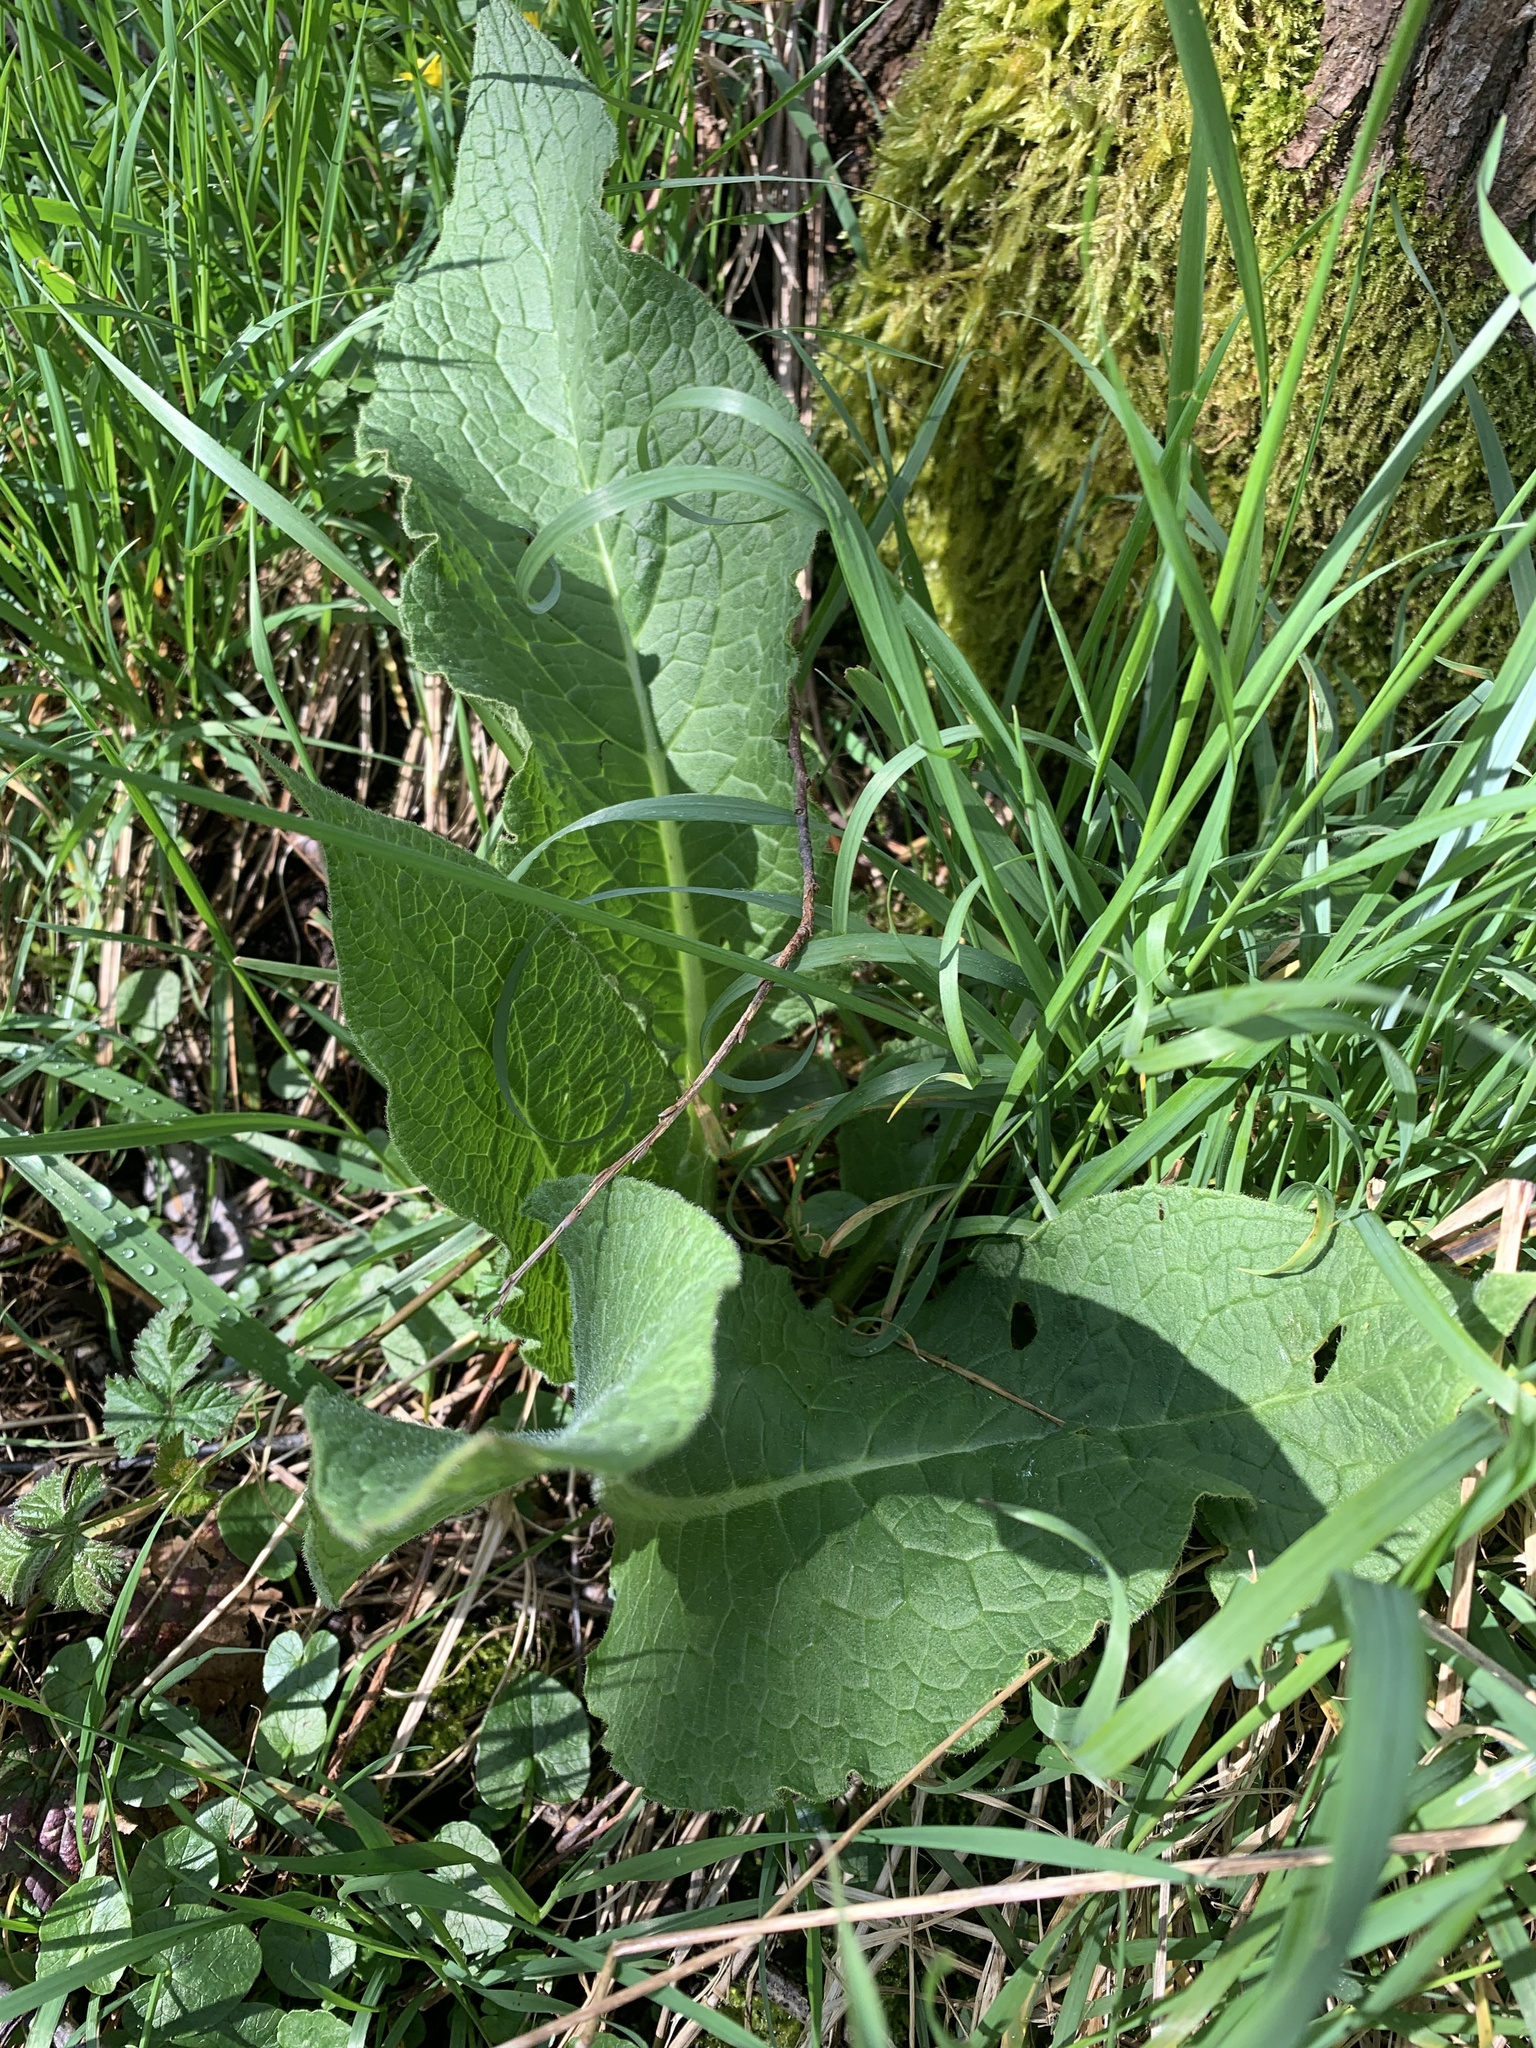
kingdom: Plantae
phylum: Tracheophyta
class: Magnoliopsida
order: Boraginales
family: Boraginaceae
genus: Symphytum
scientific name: Symphytum officinale
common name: Common comfrey
